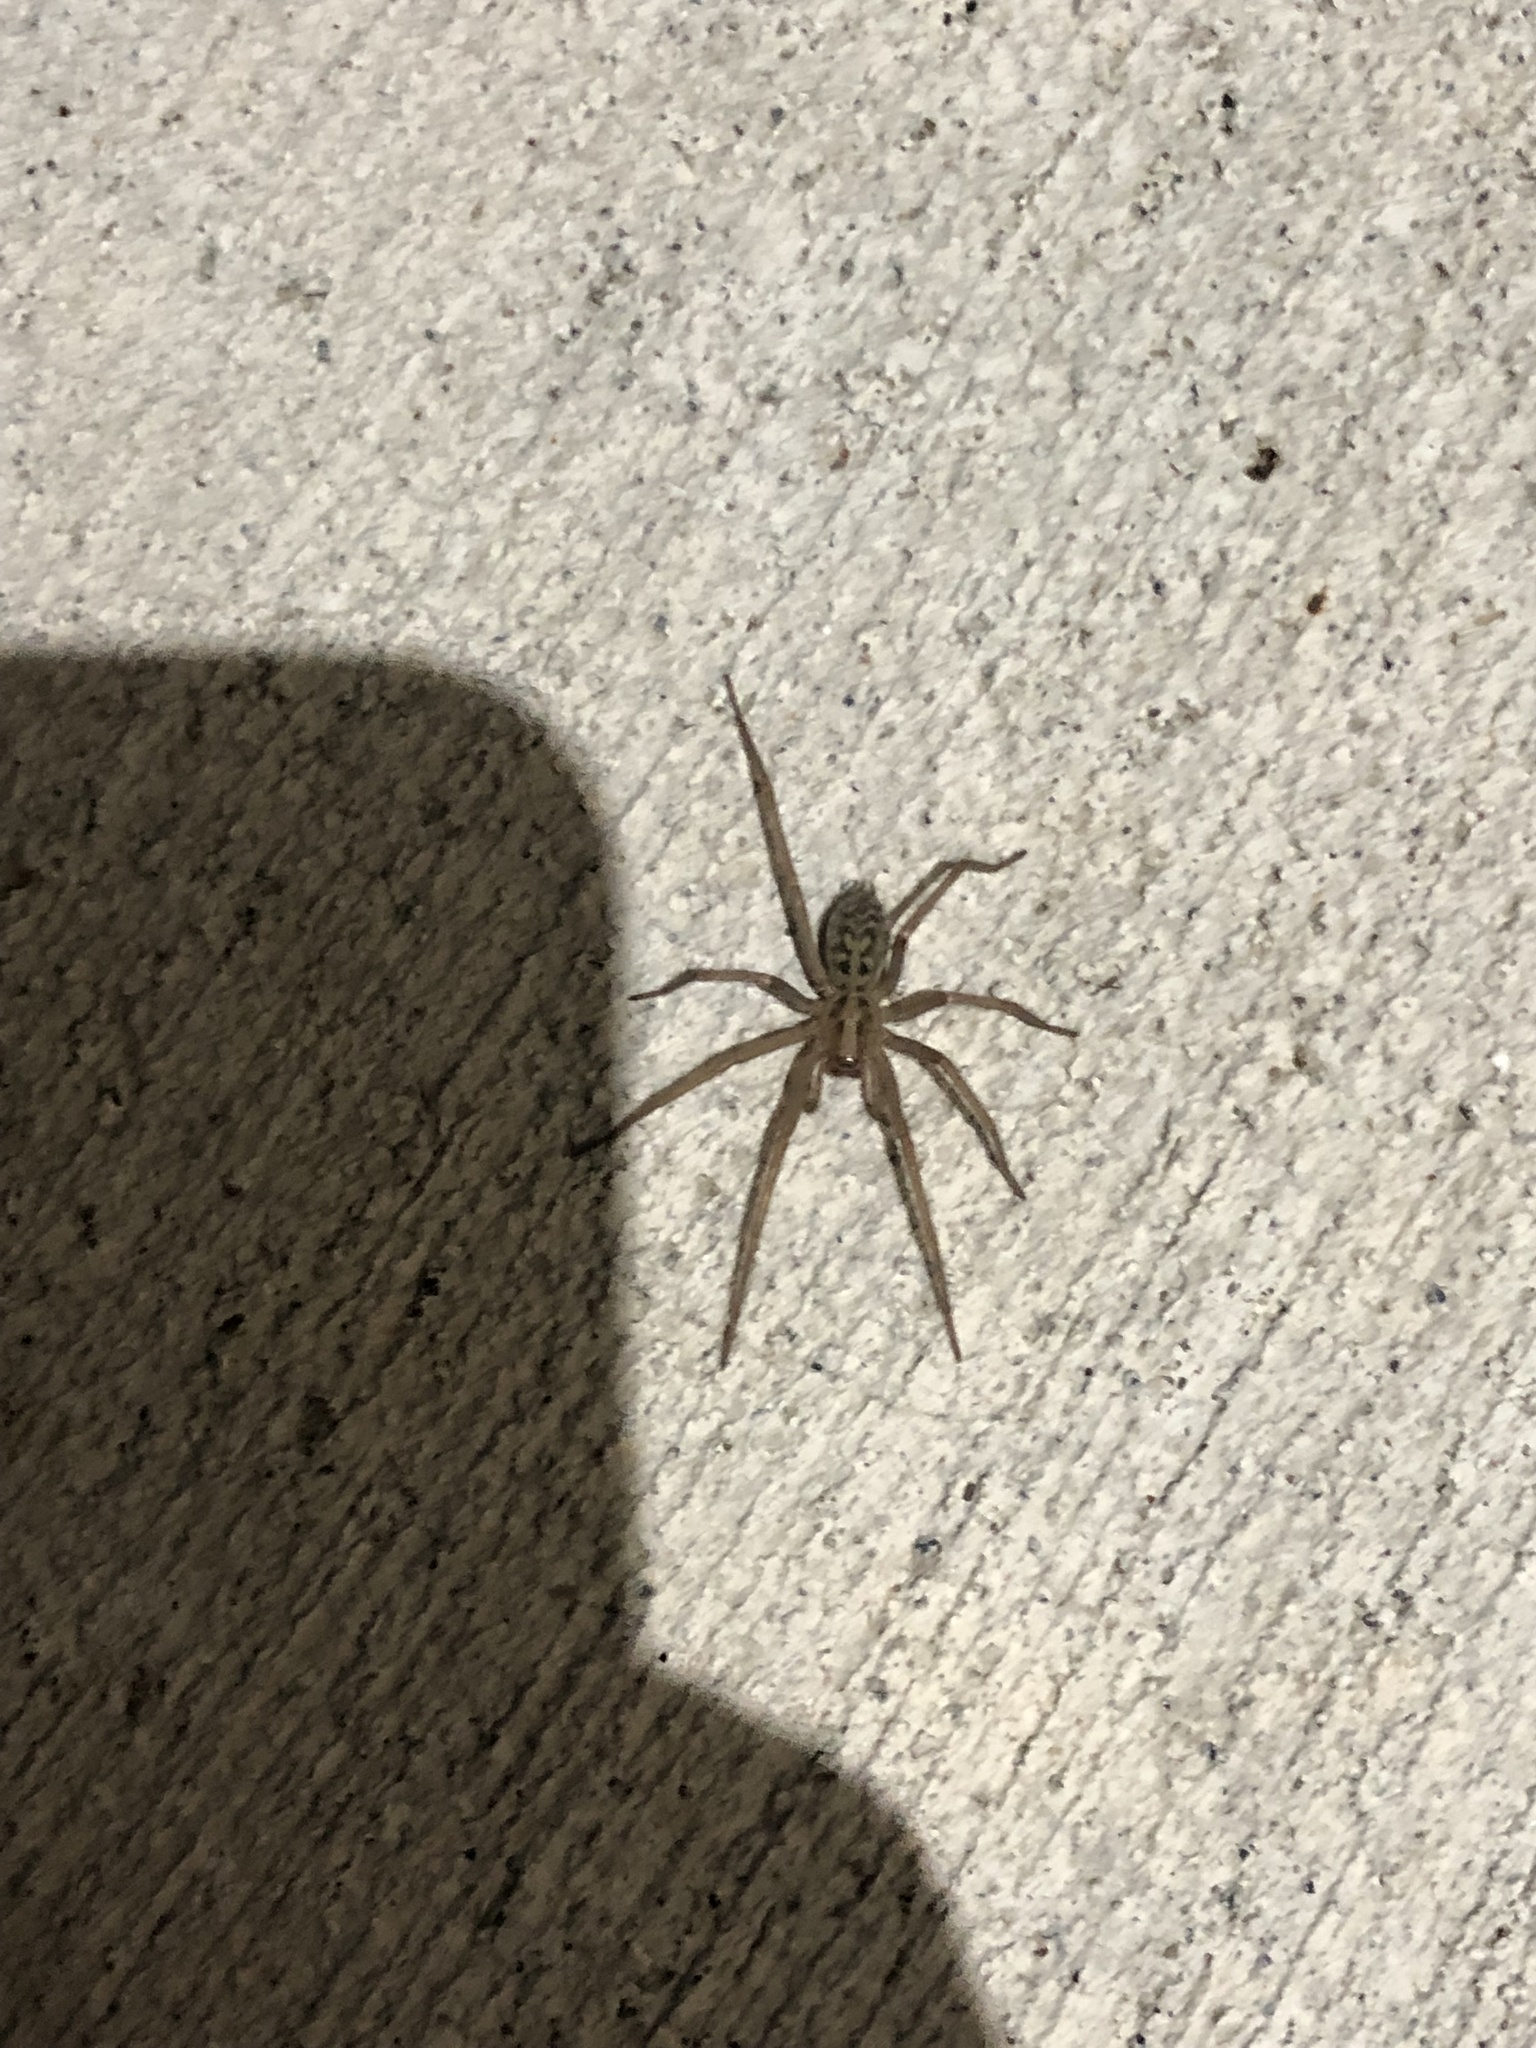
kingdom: Animalia
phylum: Arthropoda
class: Arachnida
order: Araneae
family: Agelenidae
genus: Eratigena
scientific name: Eratigena duellica
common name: Giant house spider
